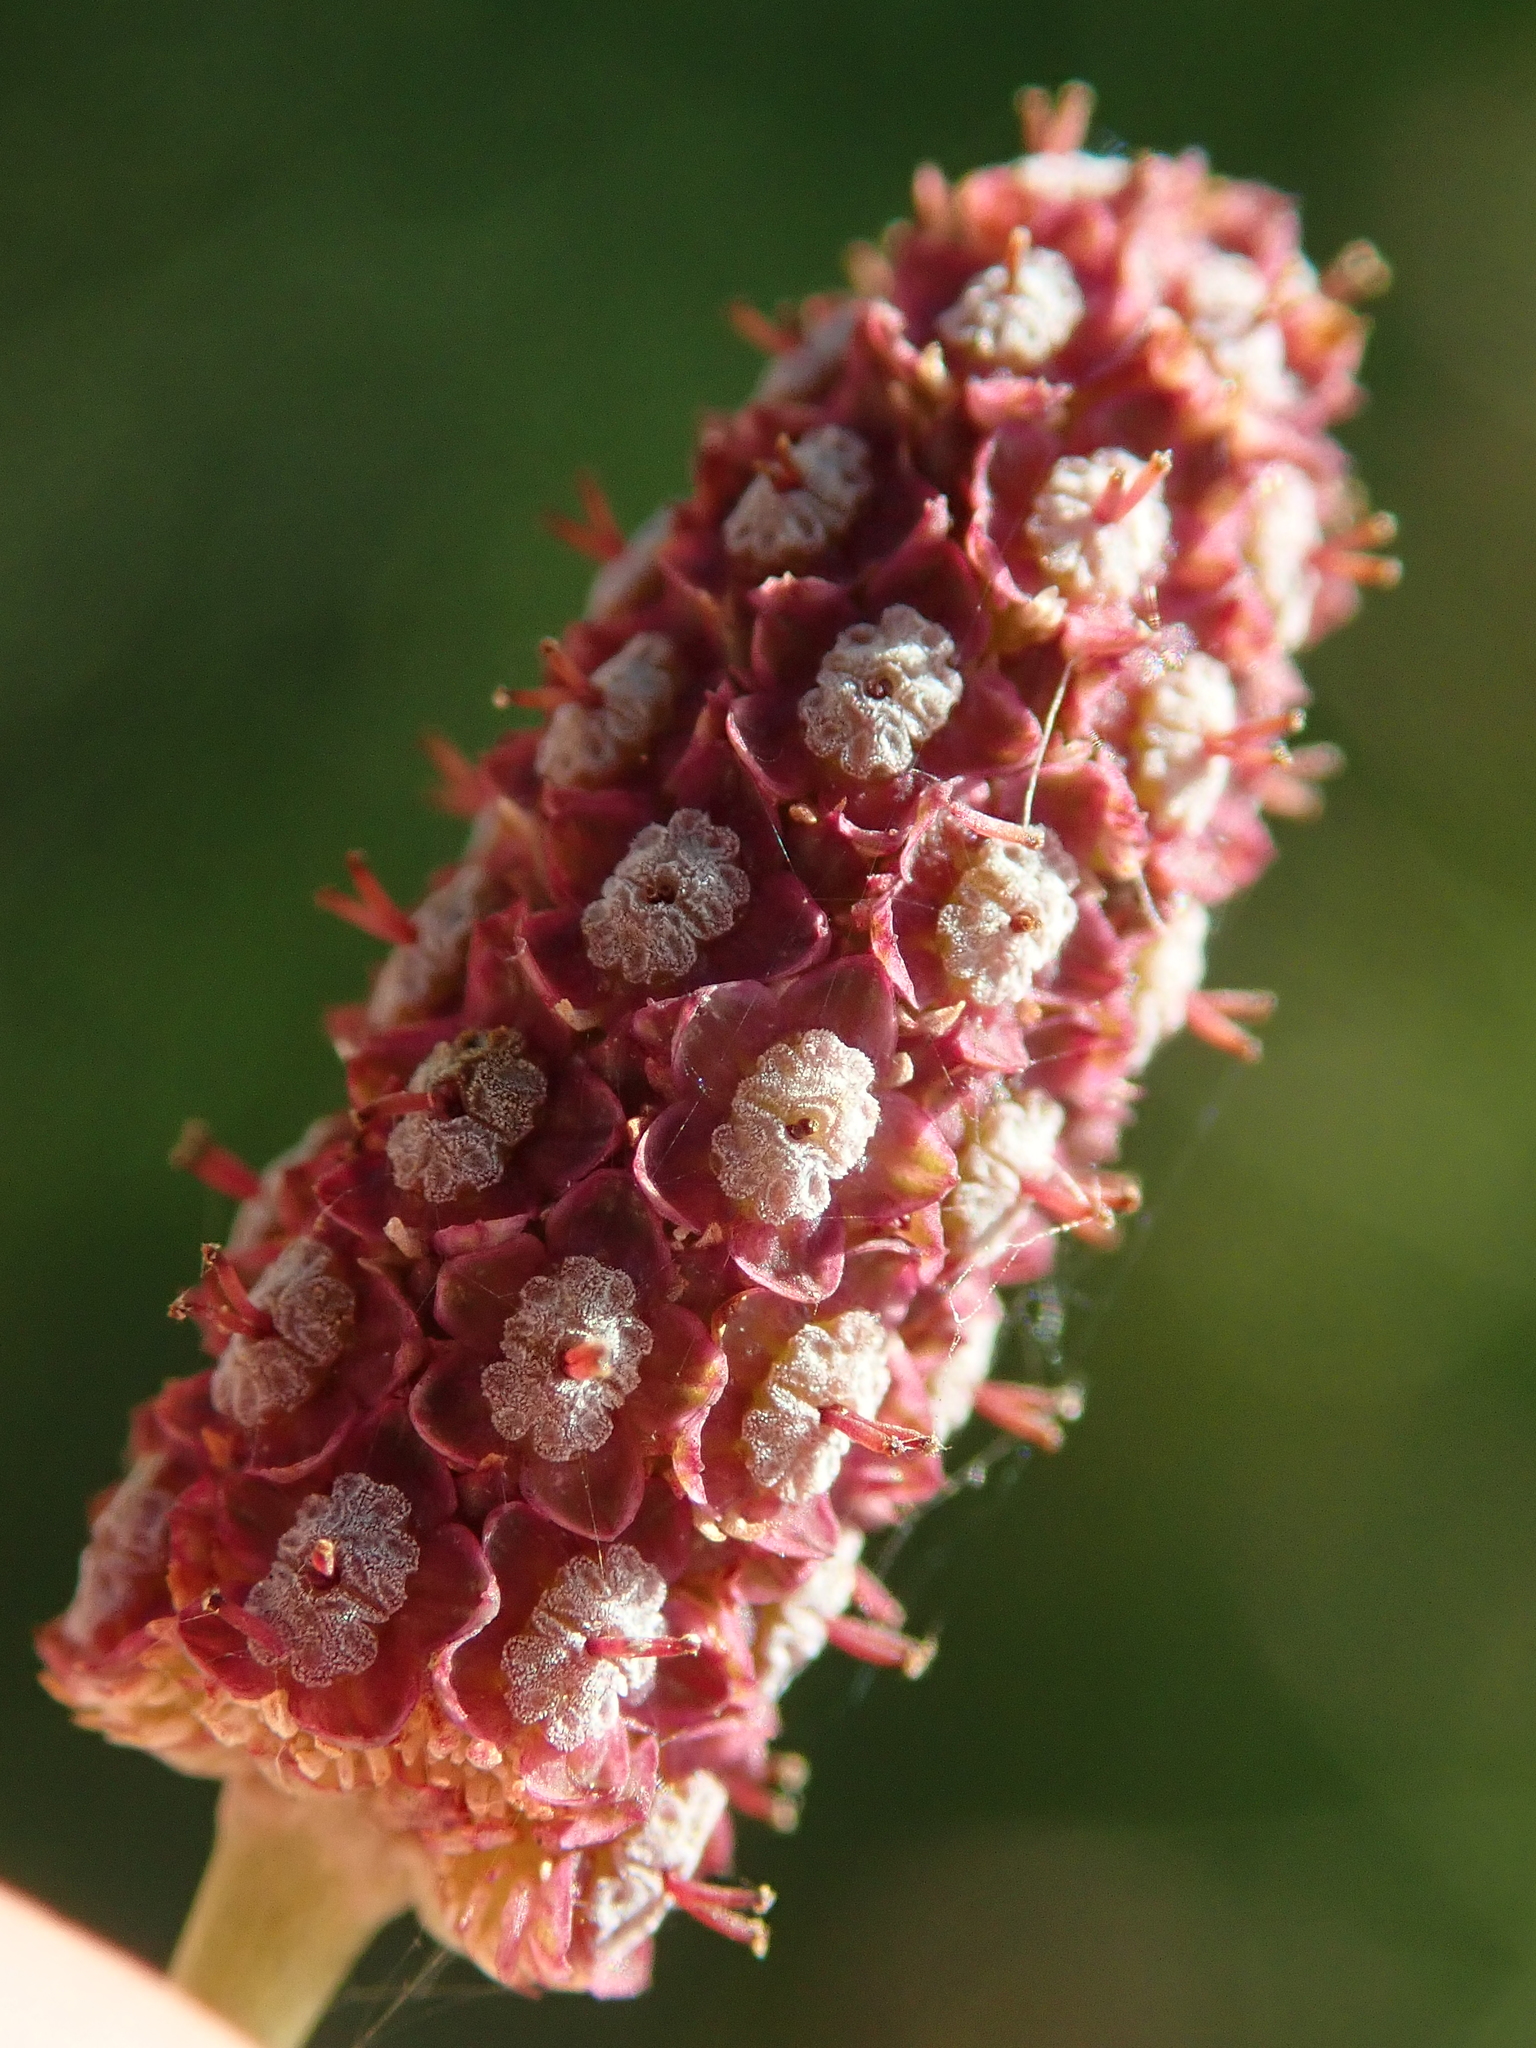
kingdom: Plantae
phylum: Tracheophyta
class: Magnoliopsida
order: Apiales
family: Apiaceae
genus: Eryngium
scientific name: Eryngium ebracteatum
